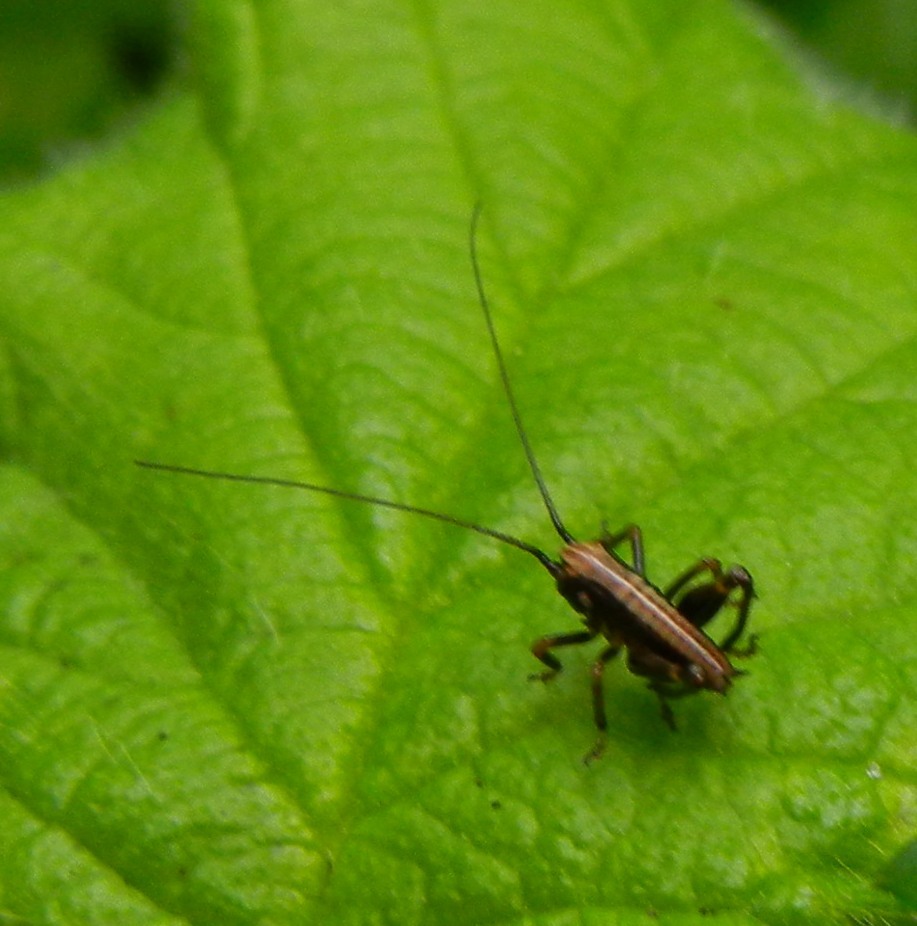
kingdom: Animalia
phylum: Arthropoda
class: Insecta
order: Orthoptera
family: Tettigoniidae
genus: Pholidoptera
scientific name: Pholidoptera griseoaptera
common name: Dark bush-cricket
